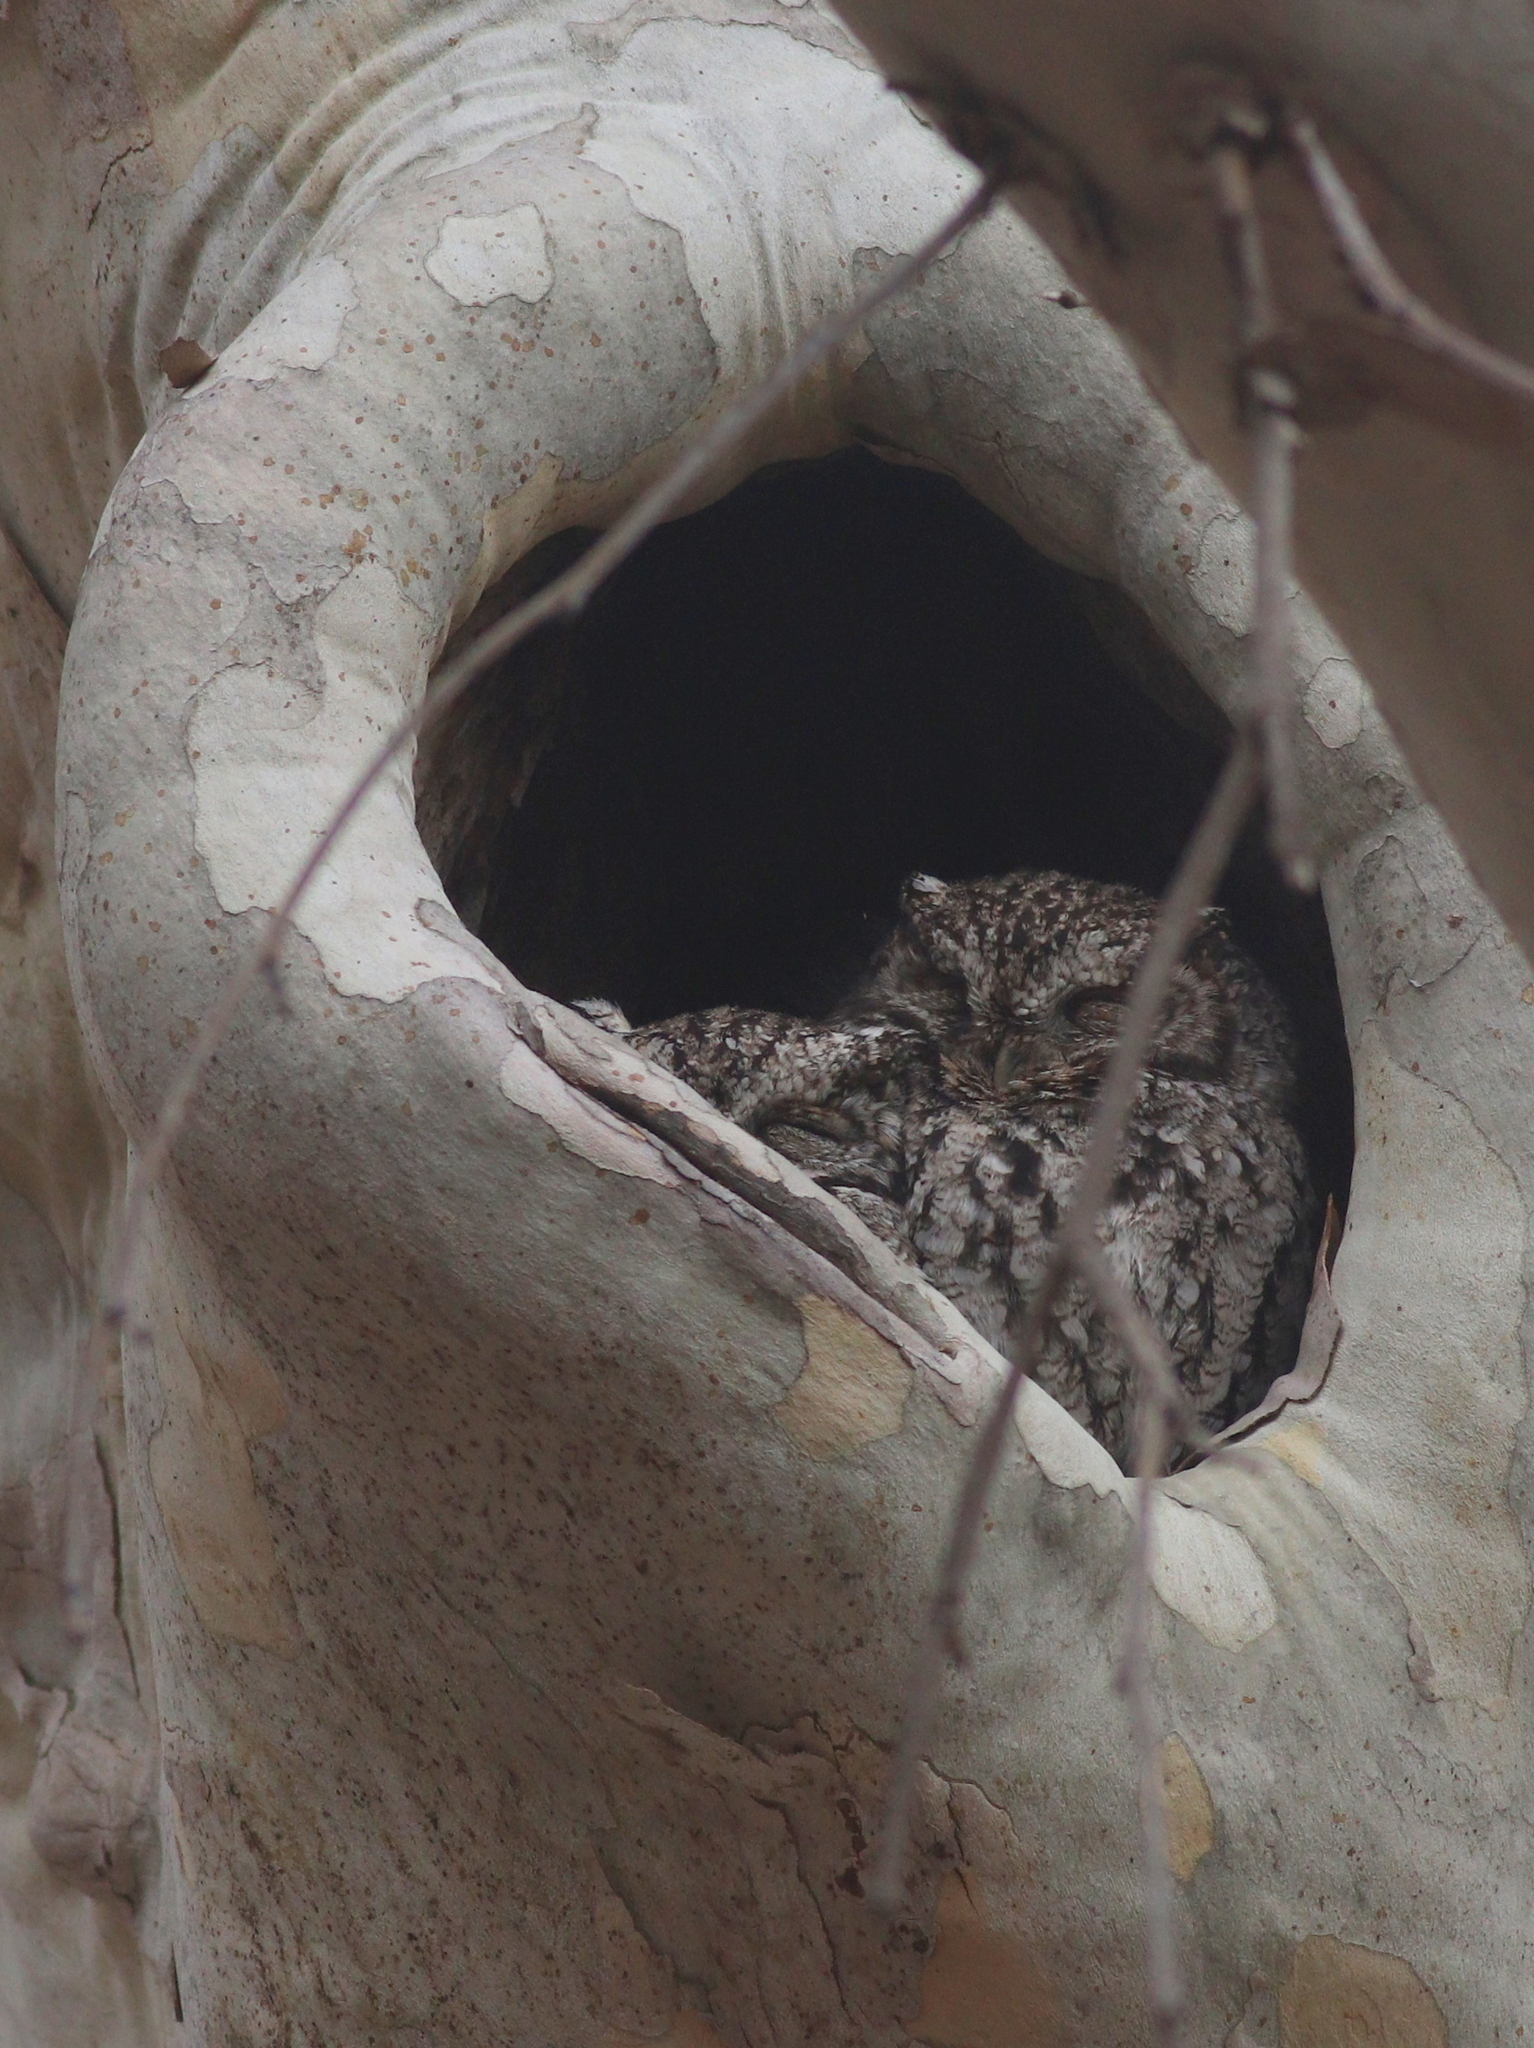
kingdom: Animalia
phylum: Chordata
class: Aves
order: Strigiformes
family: Strigidae
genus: Megascops
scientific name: Megascops trichopsis
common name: Whiskered screech-owl
